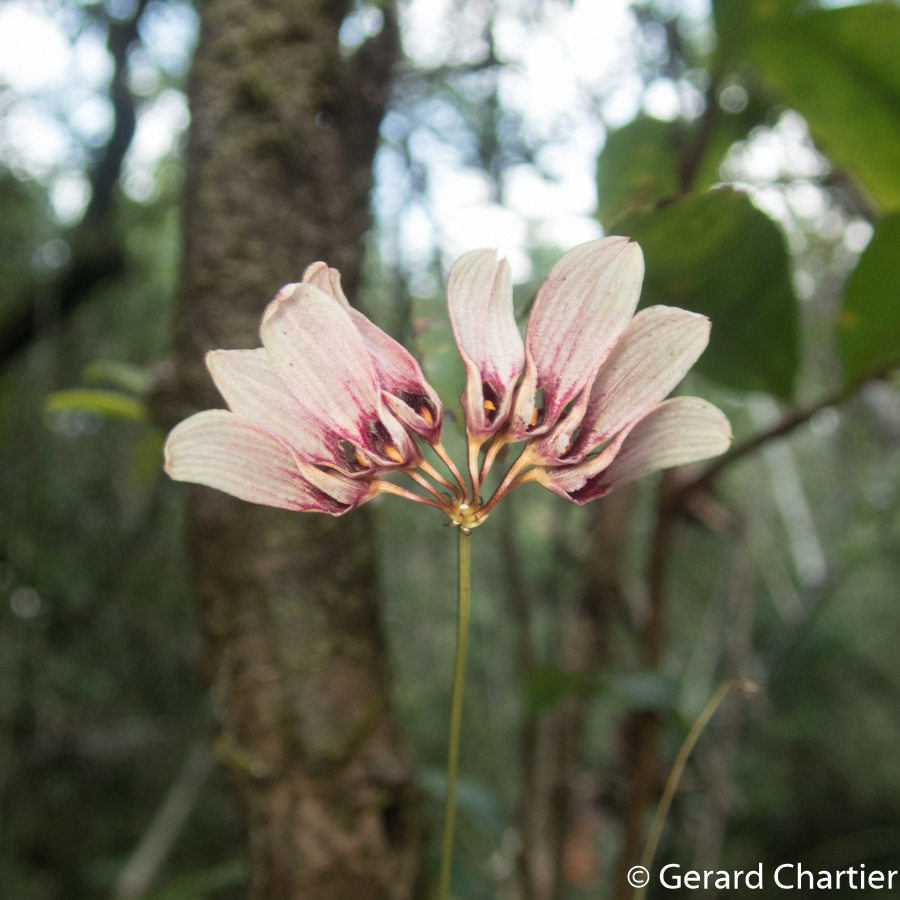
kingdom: Plantae
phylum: Tracheophyta
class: Liliopsida
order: Asparagales
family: Orchidaceae
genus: Bulbophyllum
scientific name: Bulbophyllum lepidum
